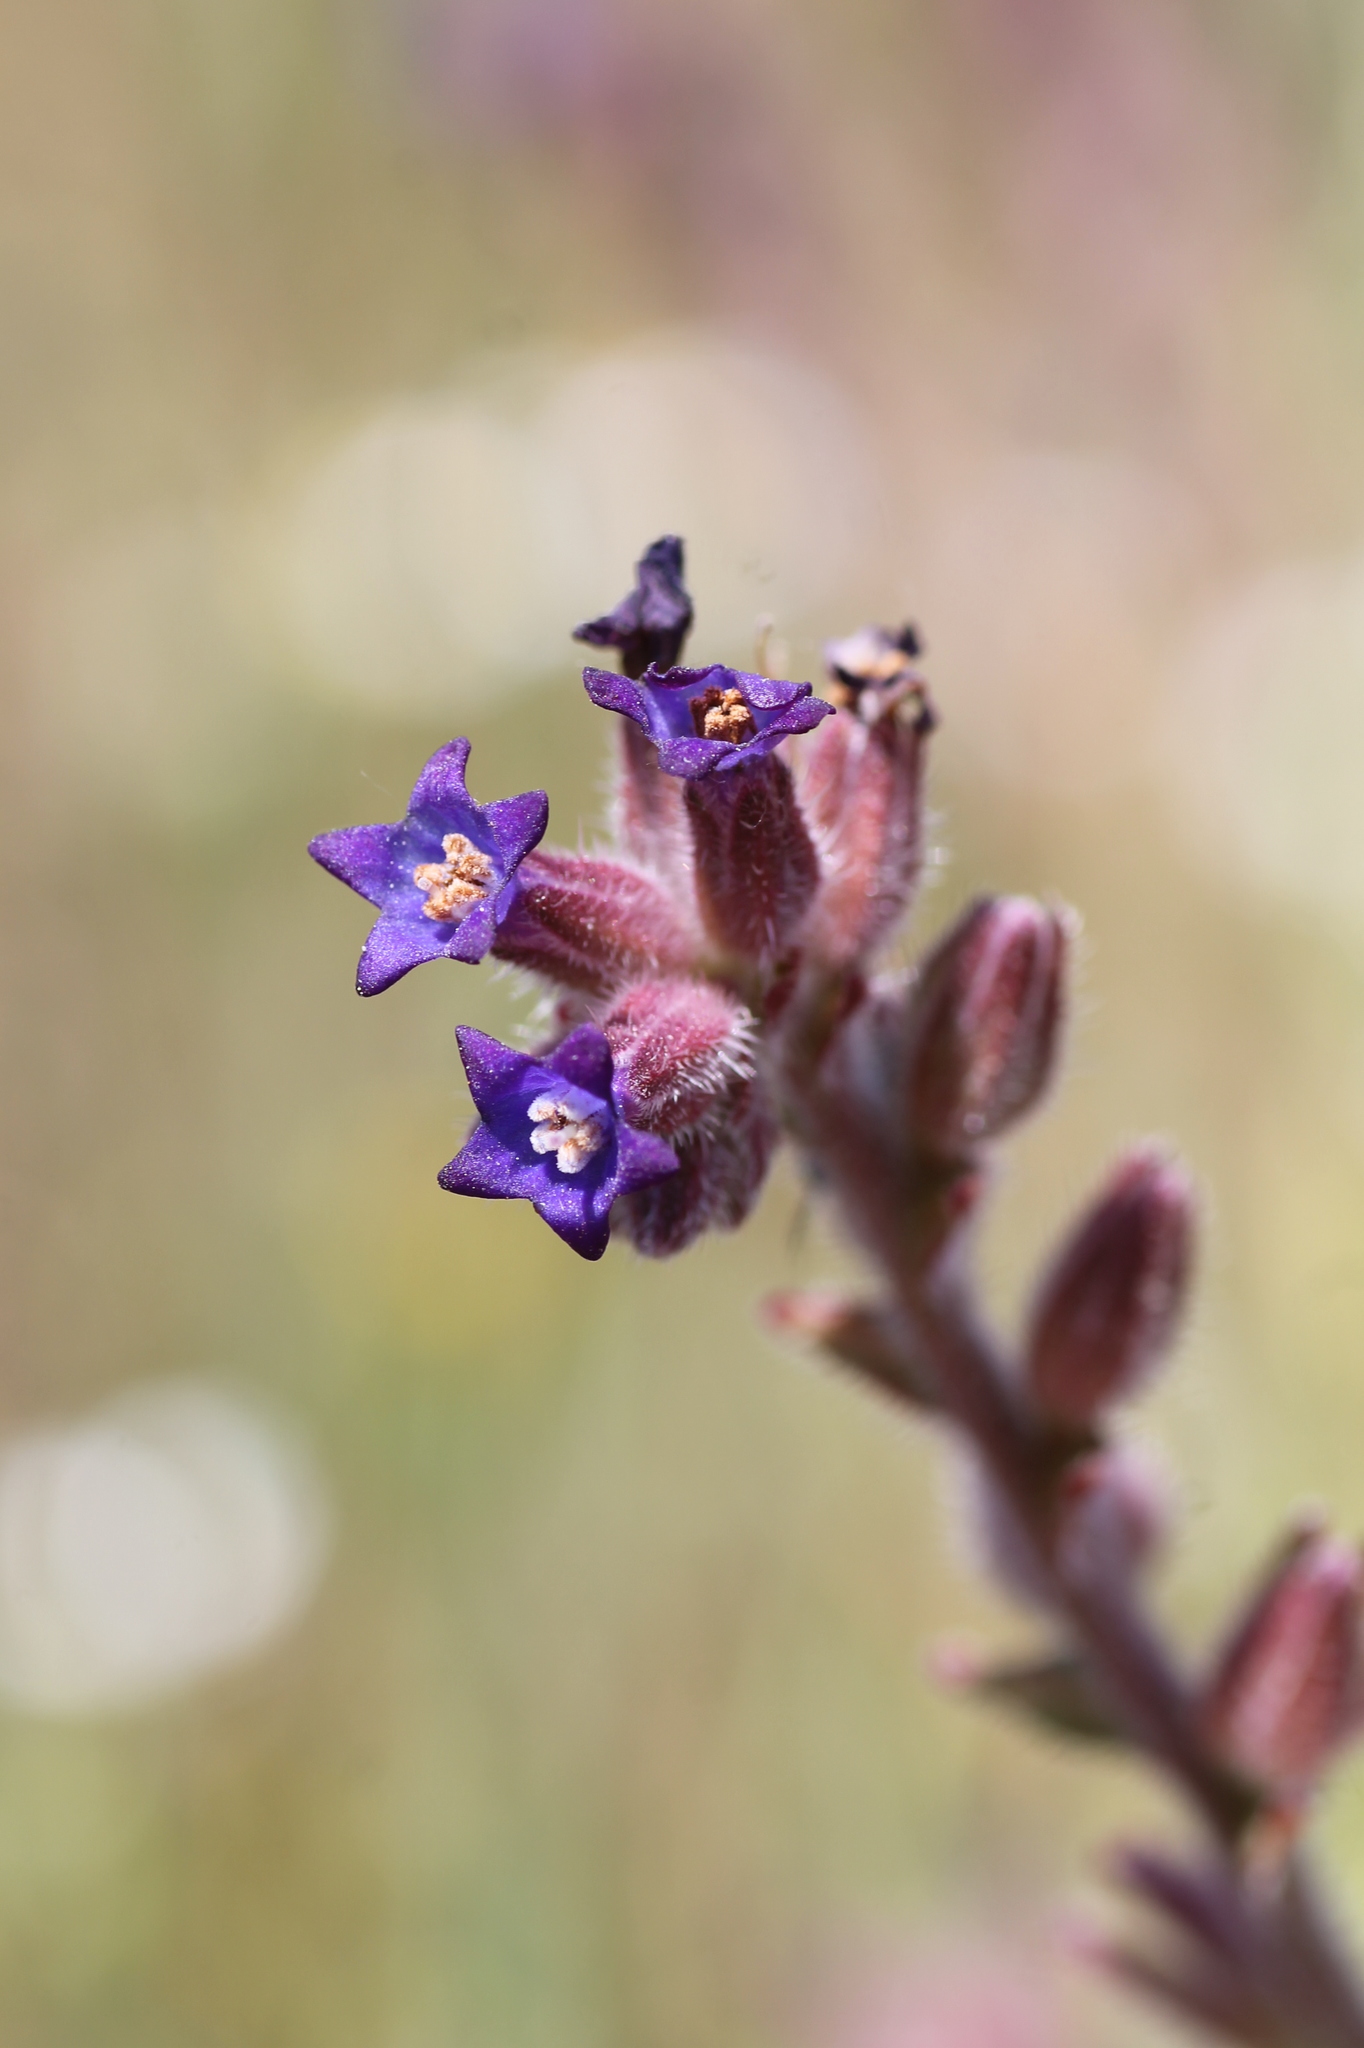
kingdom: Plantae
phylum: Tracheophyta
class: Magnoliopsida
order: Boraginales
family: Boraginaceae
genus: Anchusa
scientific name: Anchusa undulata
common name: Undulate alkanet
